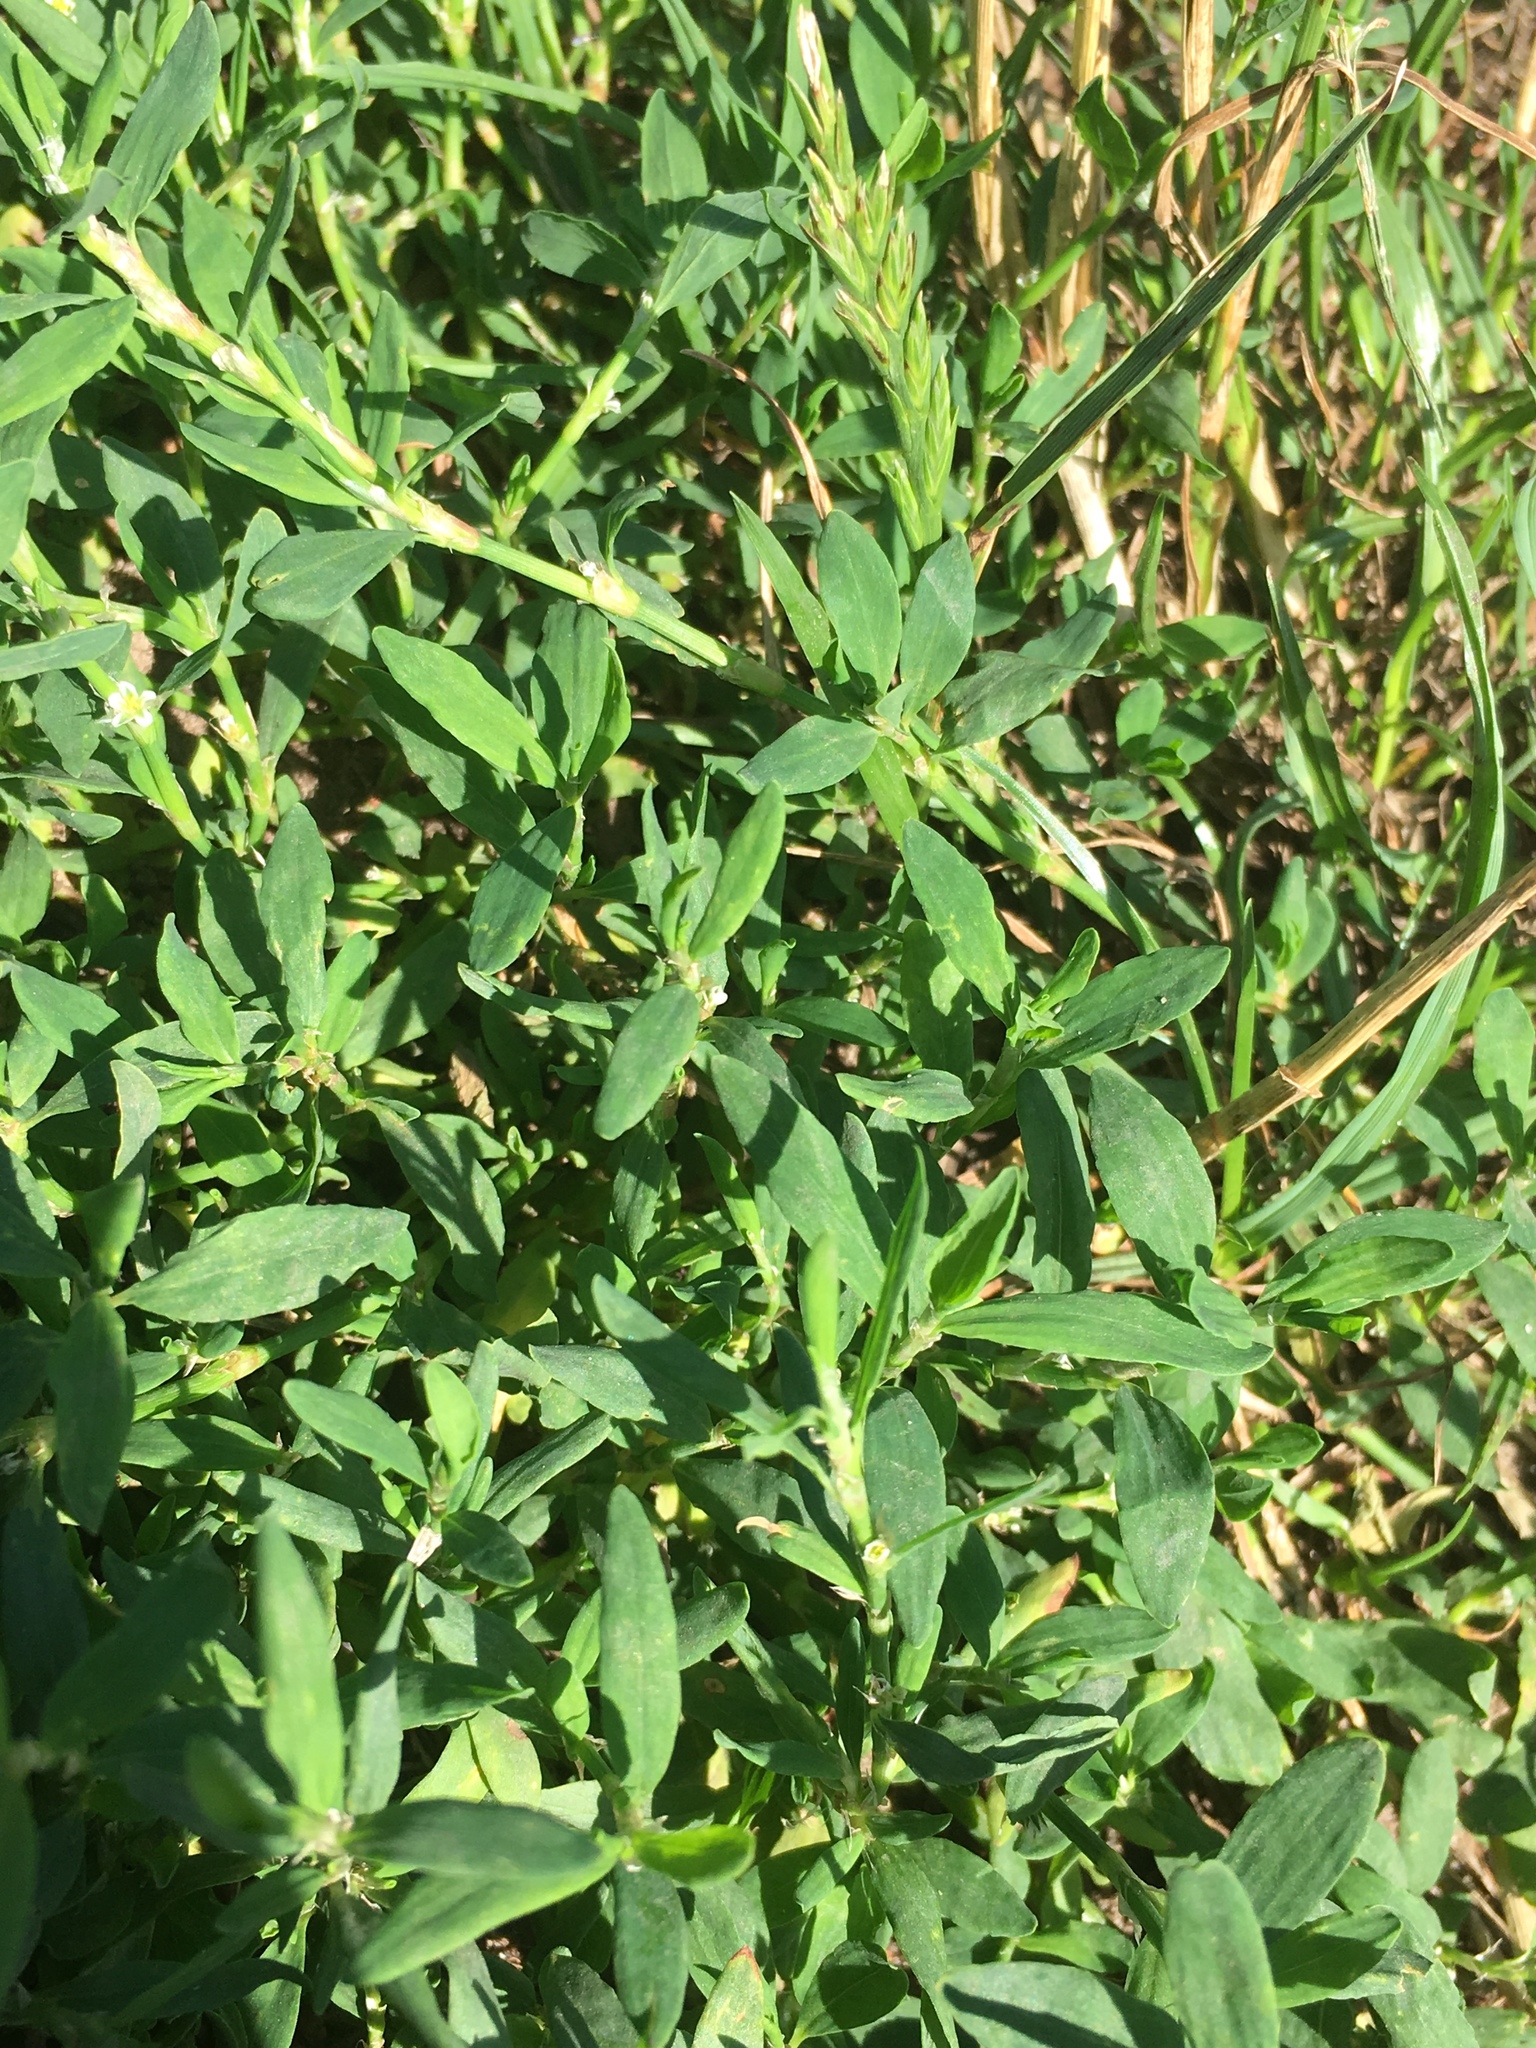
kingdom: Plantae
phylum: Tracheophyta
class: Magnoliopsida
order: Caryophyllales
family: Polygonaceae
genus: Polygonum
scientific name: Polygonum aviculare
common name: Prostrate knotweed
